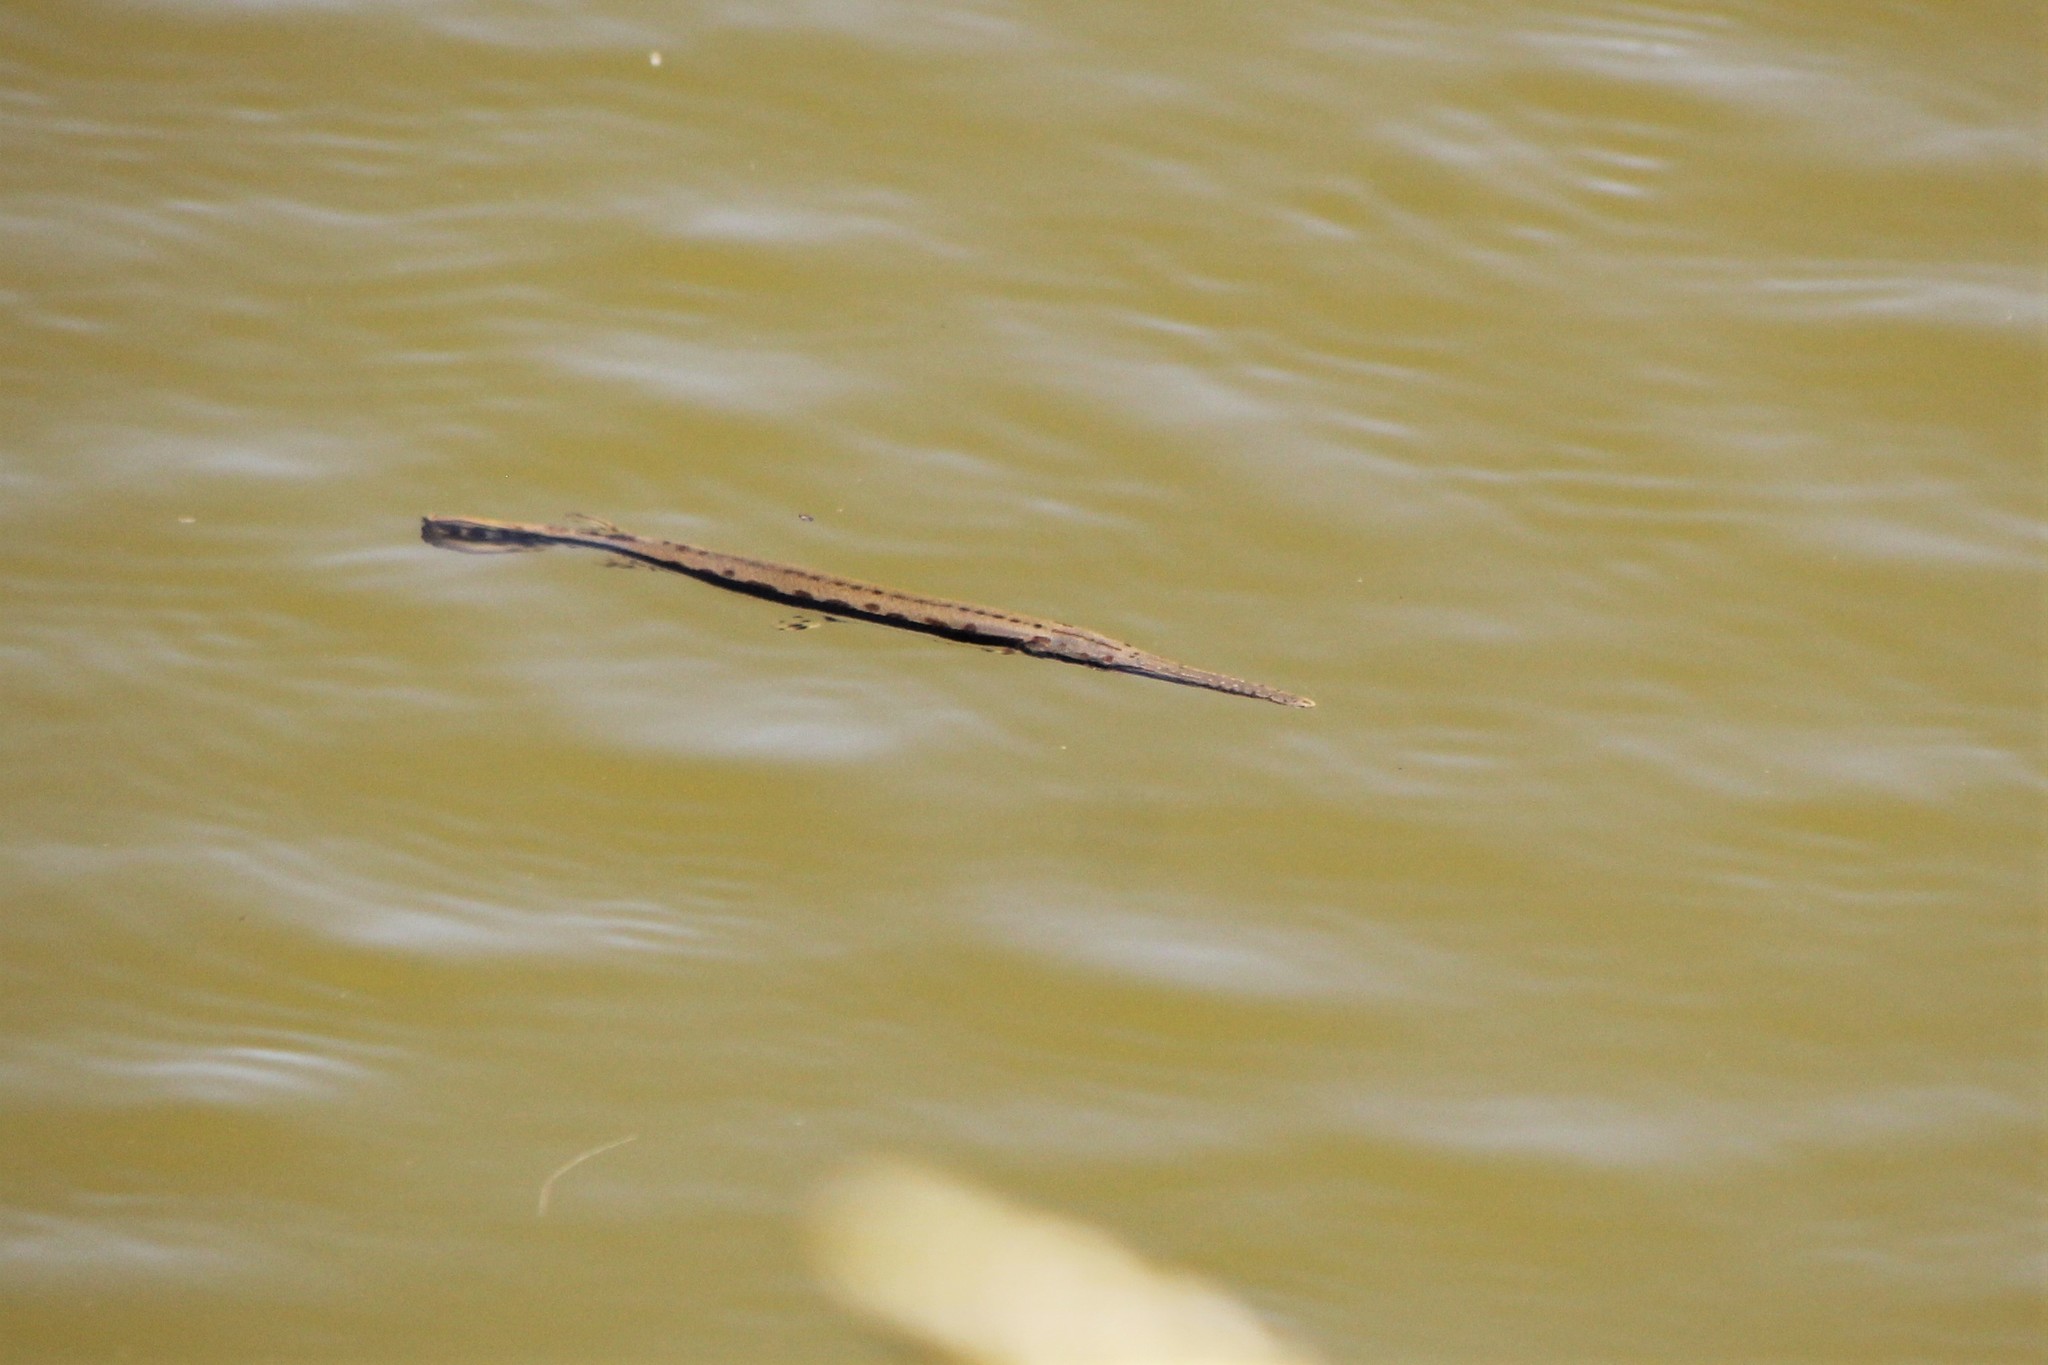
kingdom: Animalia
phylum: Chordata
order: Lepisosteiformes
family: Lepisosteidae
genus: Lepisosteus
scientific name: Lepisosteus osseus
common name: Longnose gar
